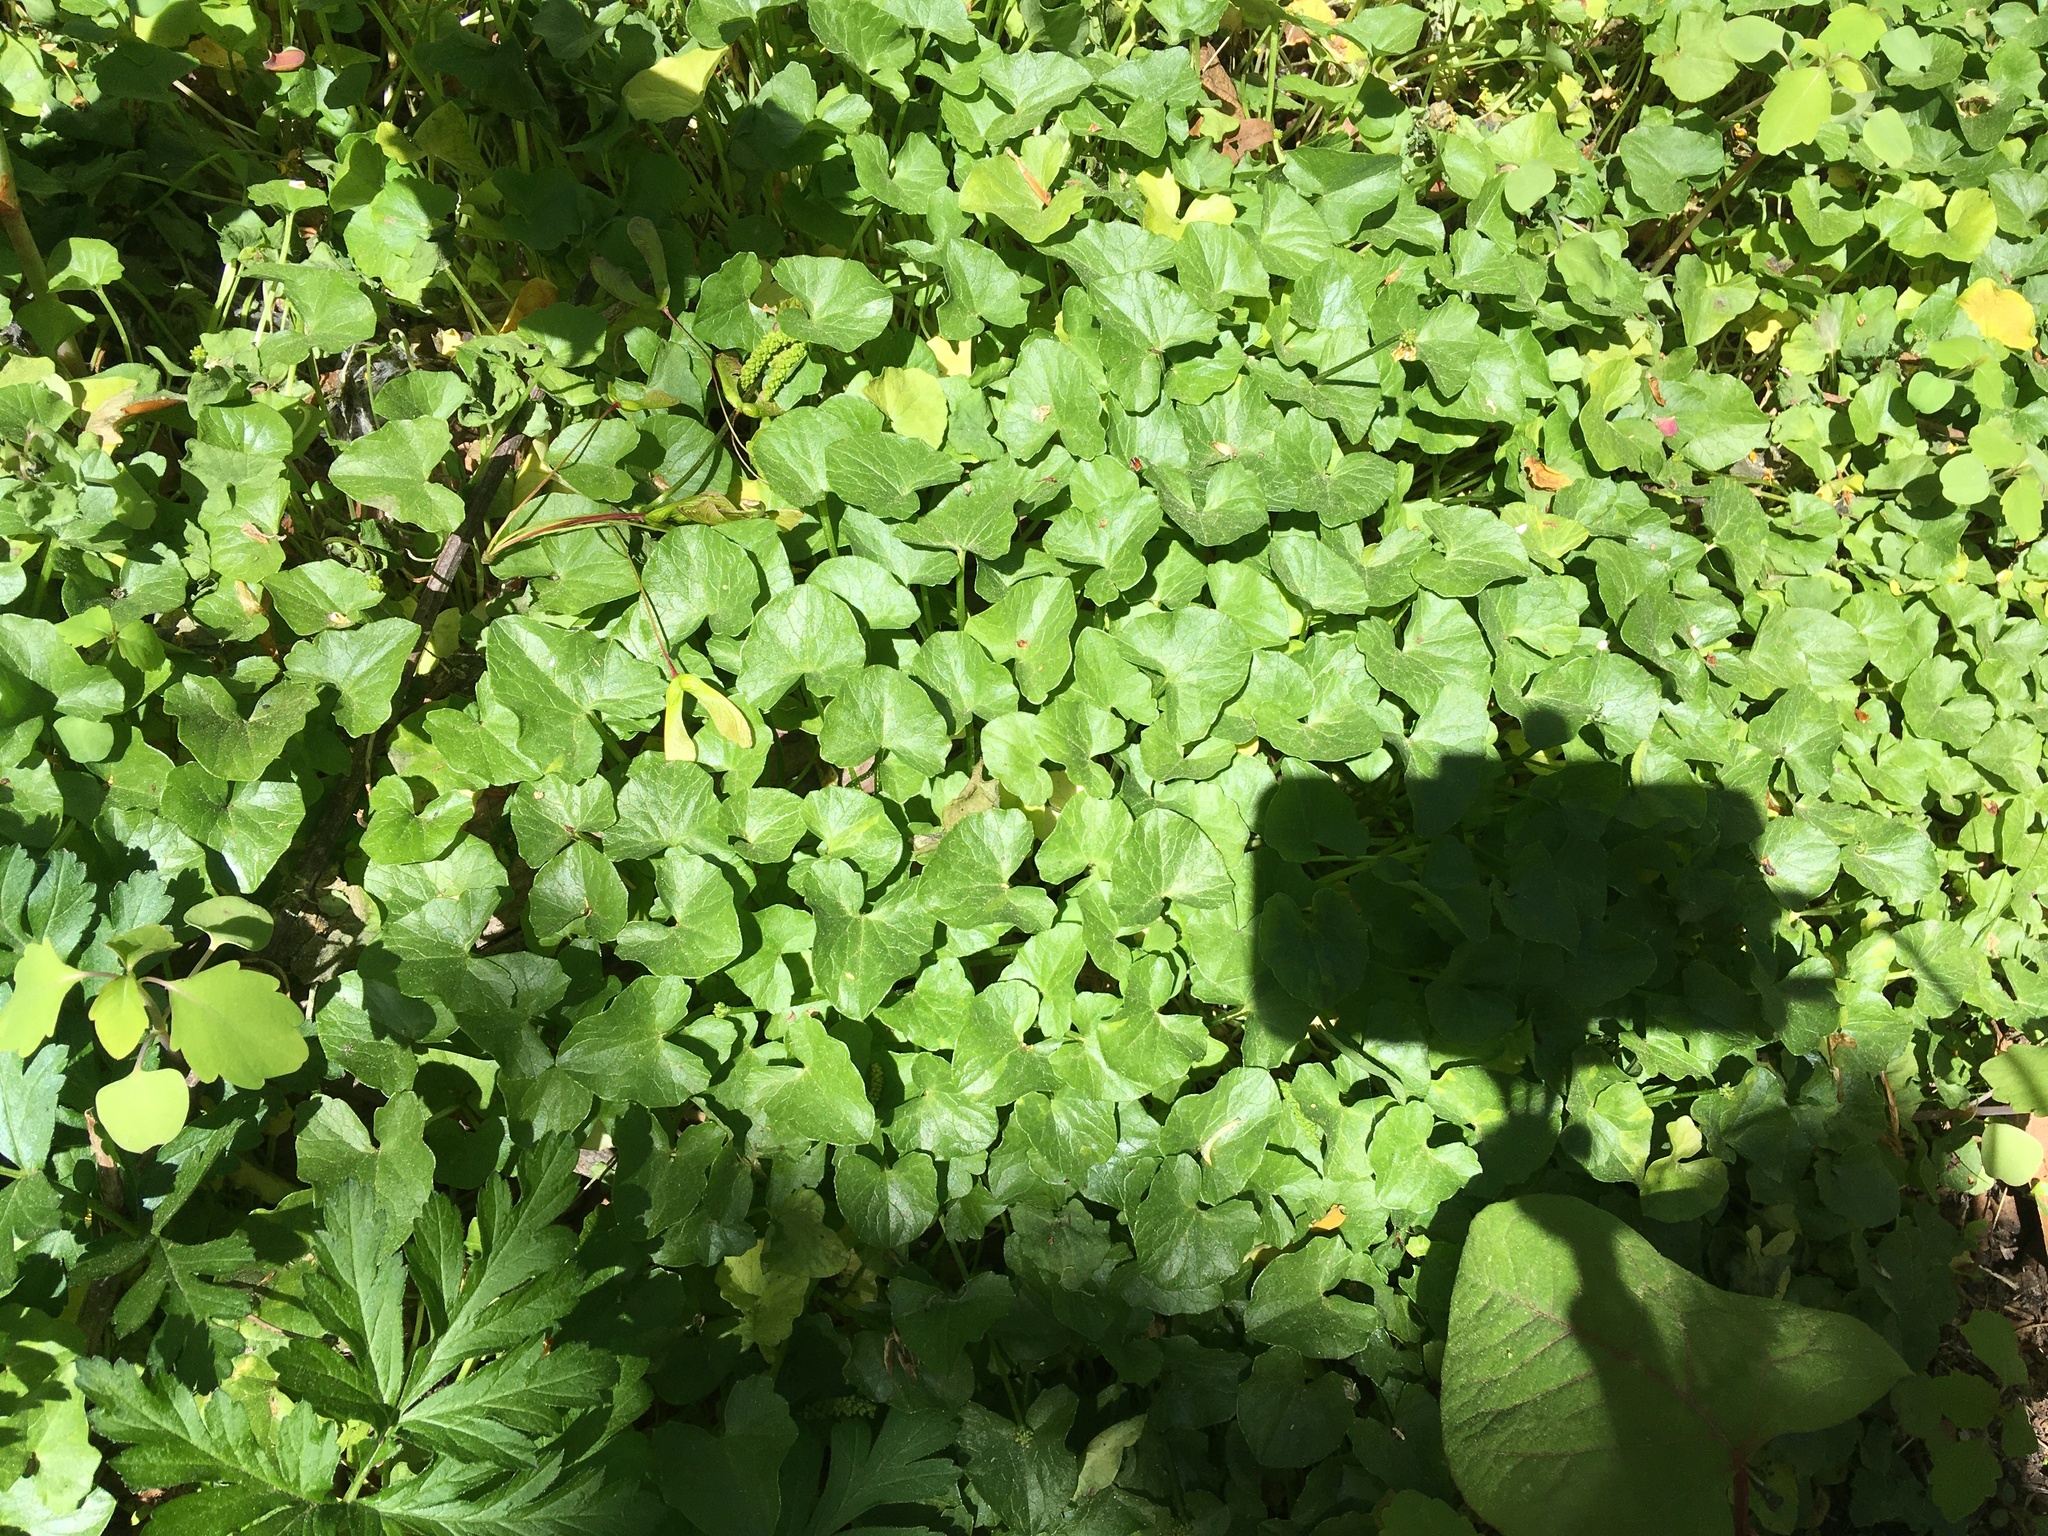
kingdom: Plantae
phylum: Tracheophyta
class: Magnoliopsida
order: Ranunculales
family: Ranunculaceae
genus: Ficaria
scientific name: Ficaria verna
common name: Lesser celandine
